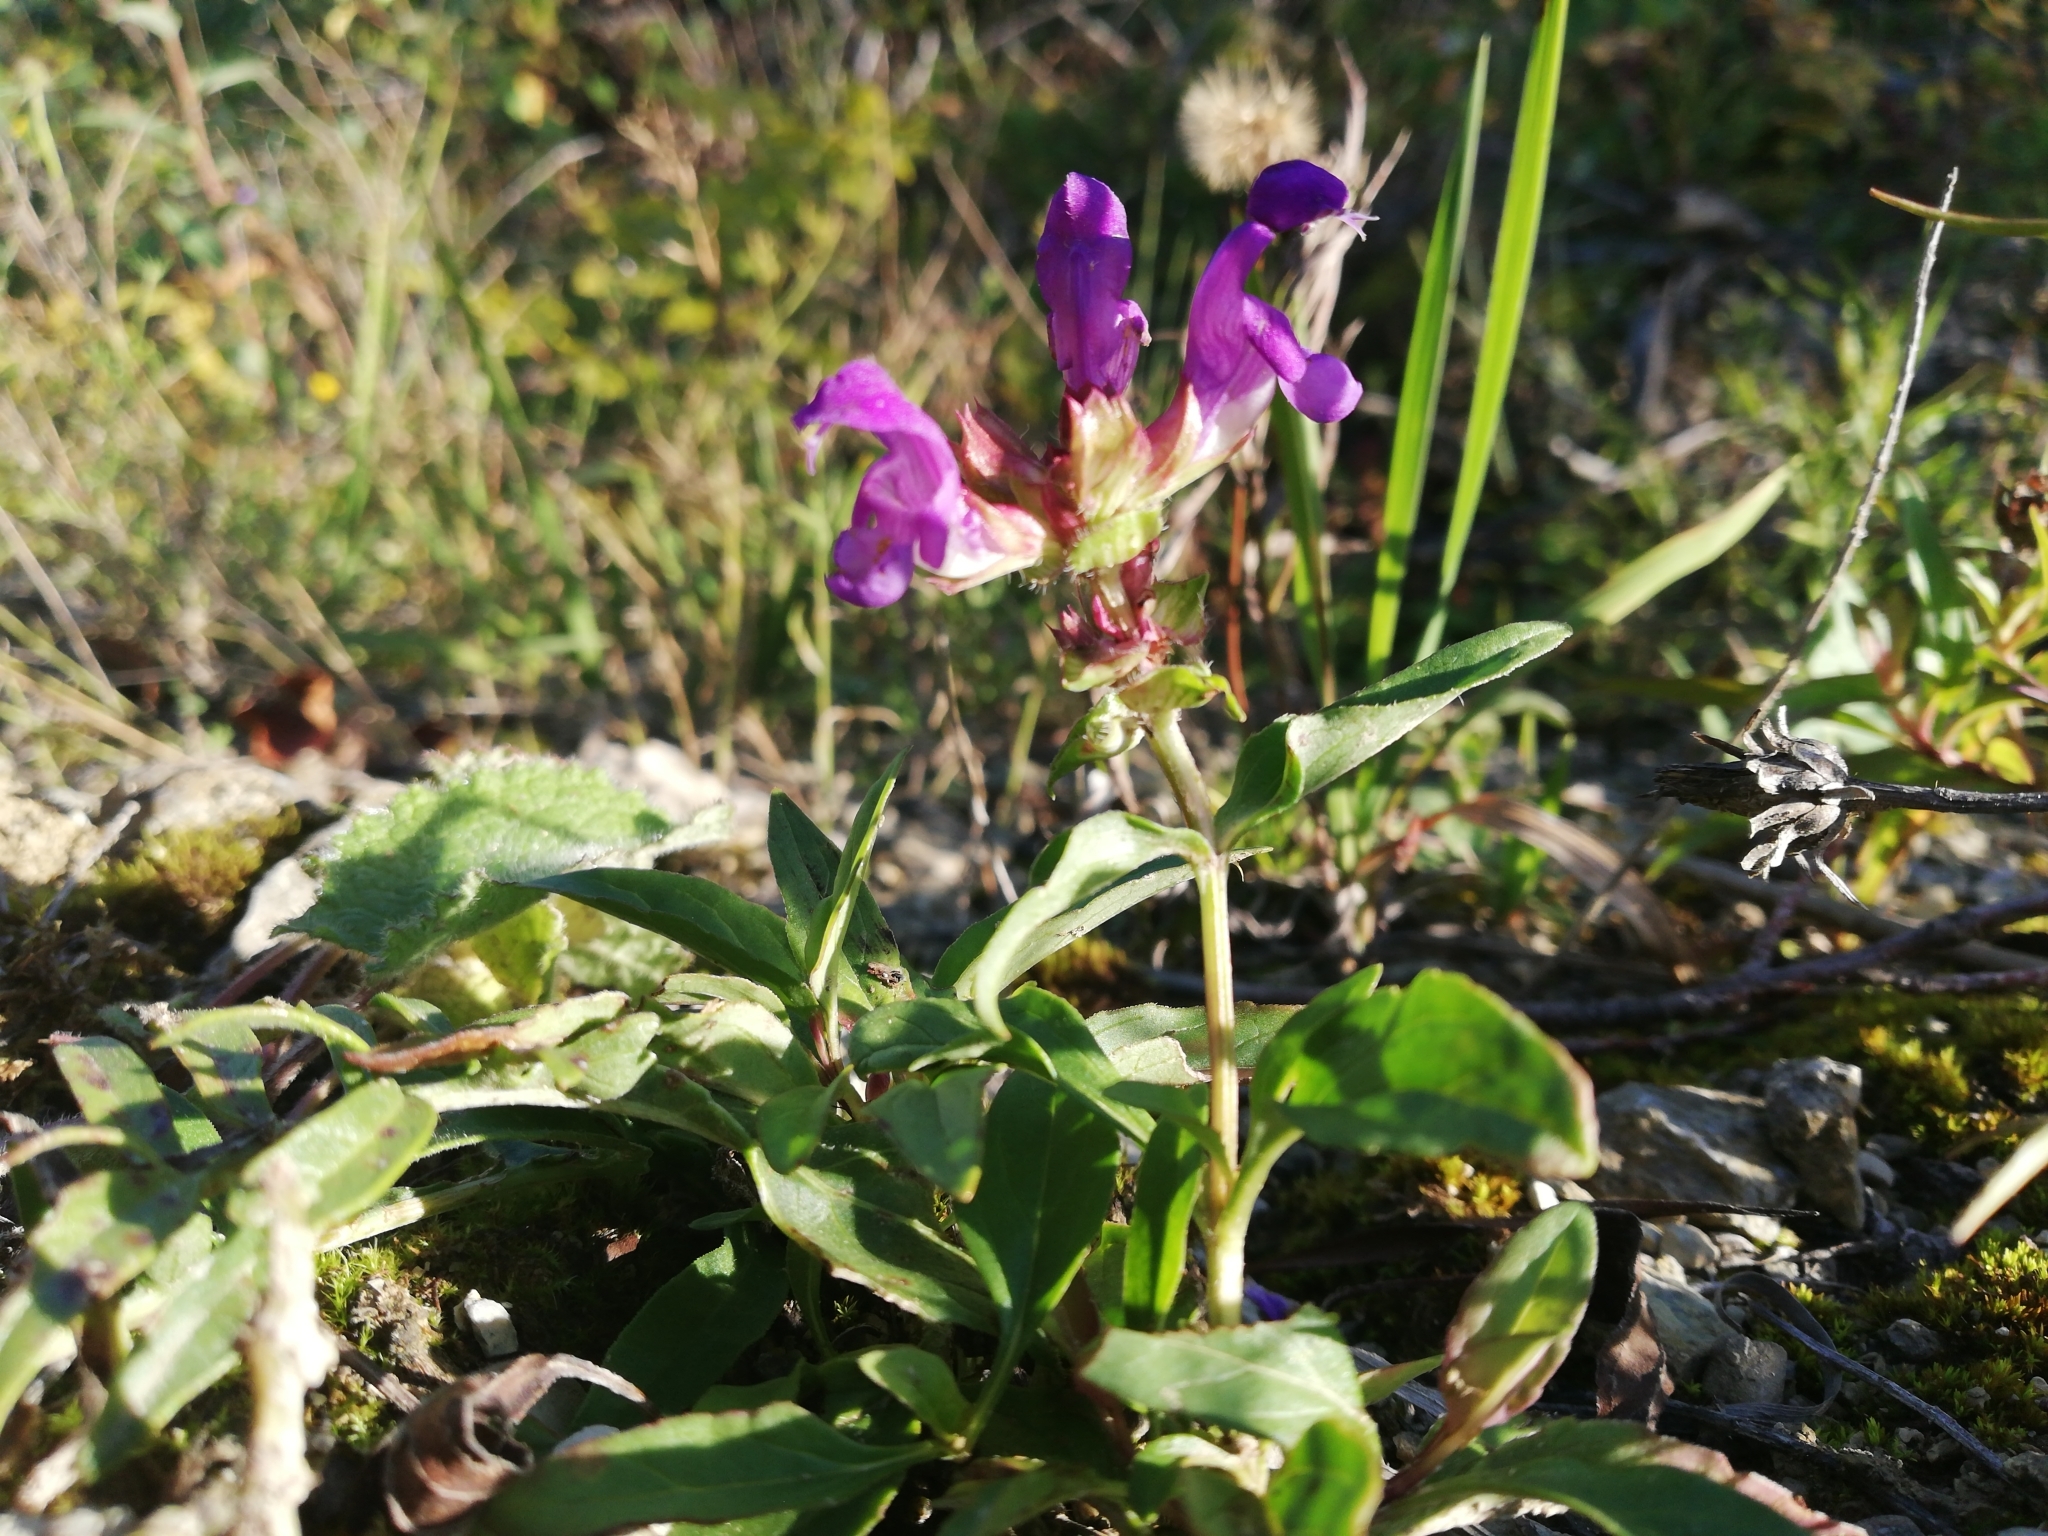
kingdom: Plantae
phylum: Tracheophyta
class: Magnoliopsida
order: Lamiales
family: Lamiaceae
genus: Prunella
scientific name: Prunella grandiflora
